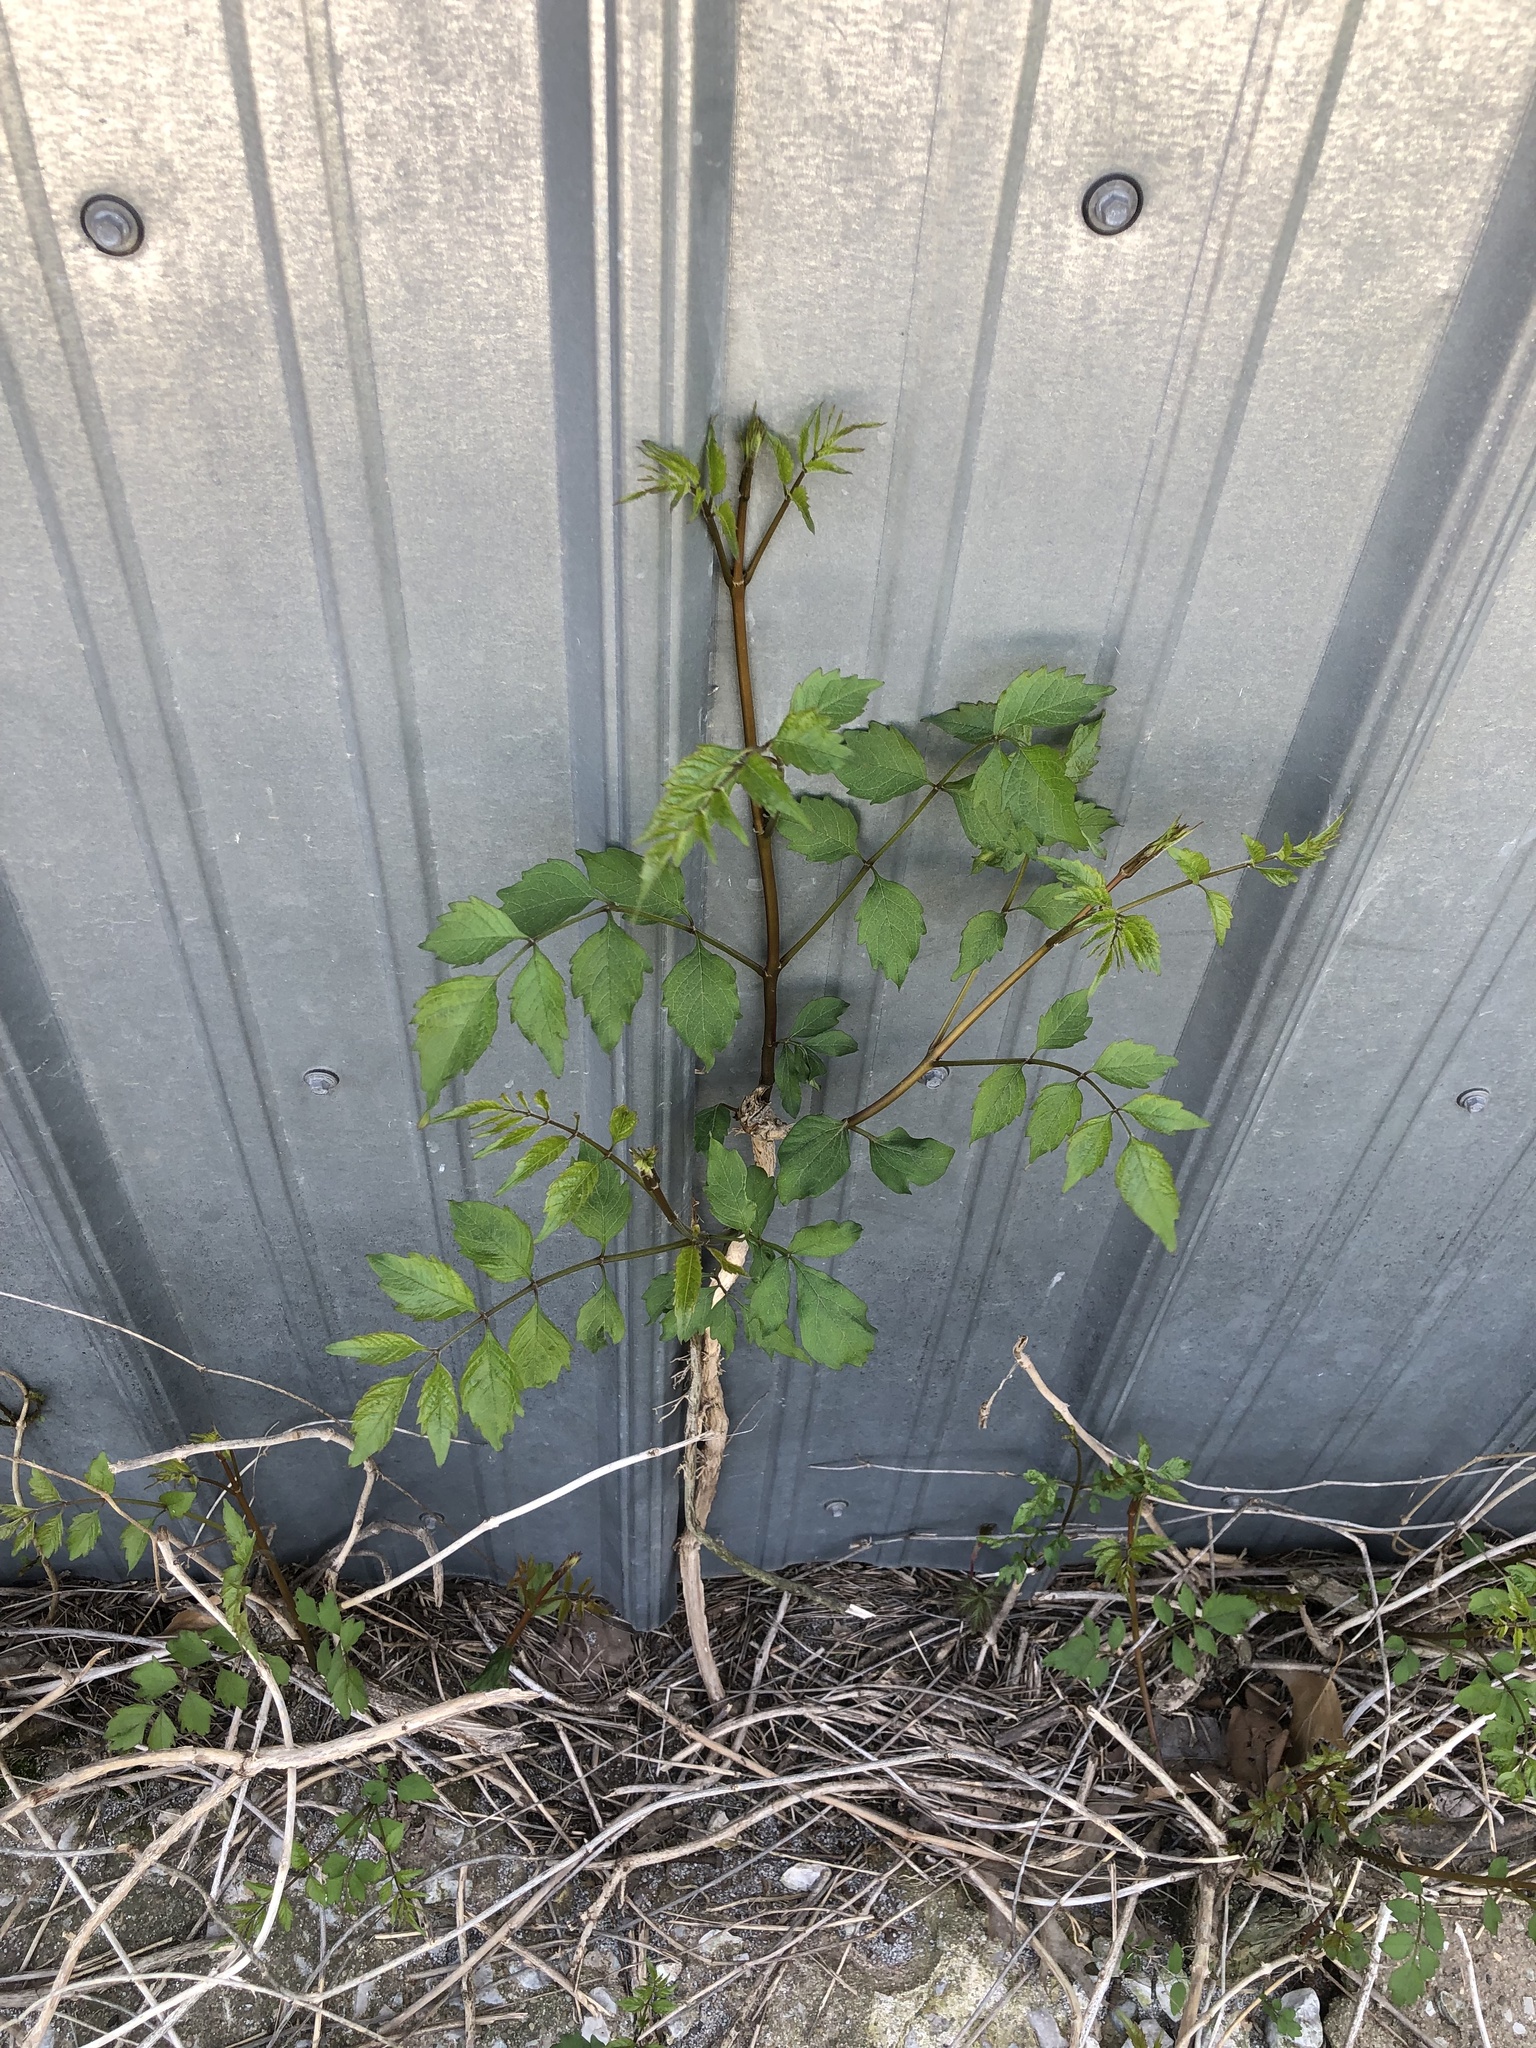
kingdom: Plantae
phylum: Tracheophyta
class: Magnoliopsida
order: Lamiales
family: Bignoniaceae
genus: Campsis
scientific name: Campsis radicans
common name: Trumpet-creeper
